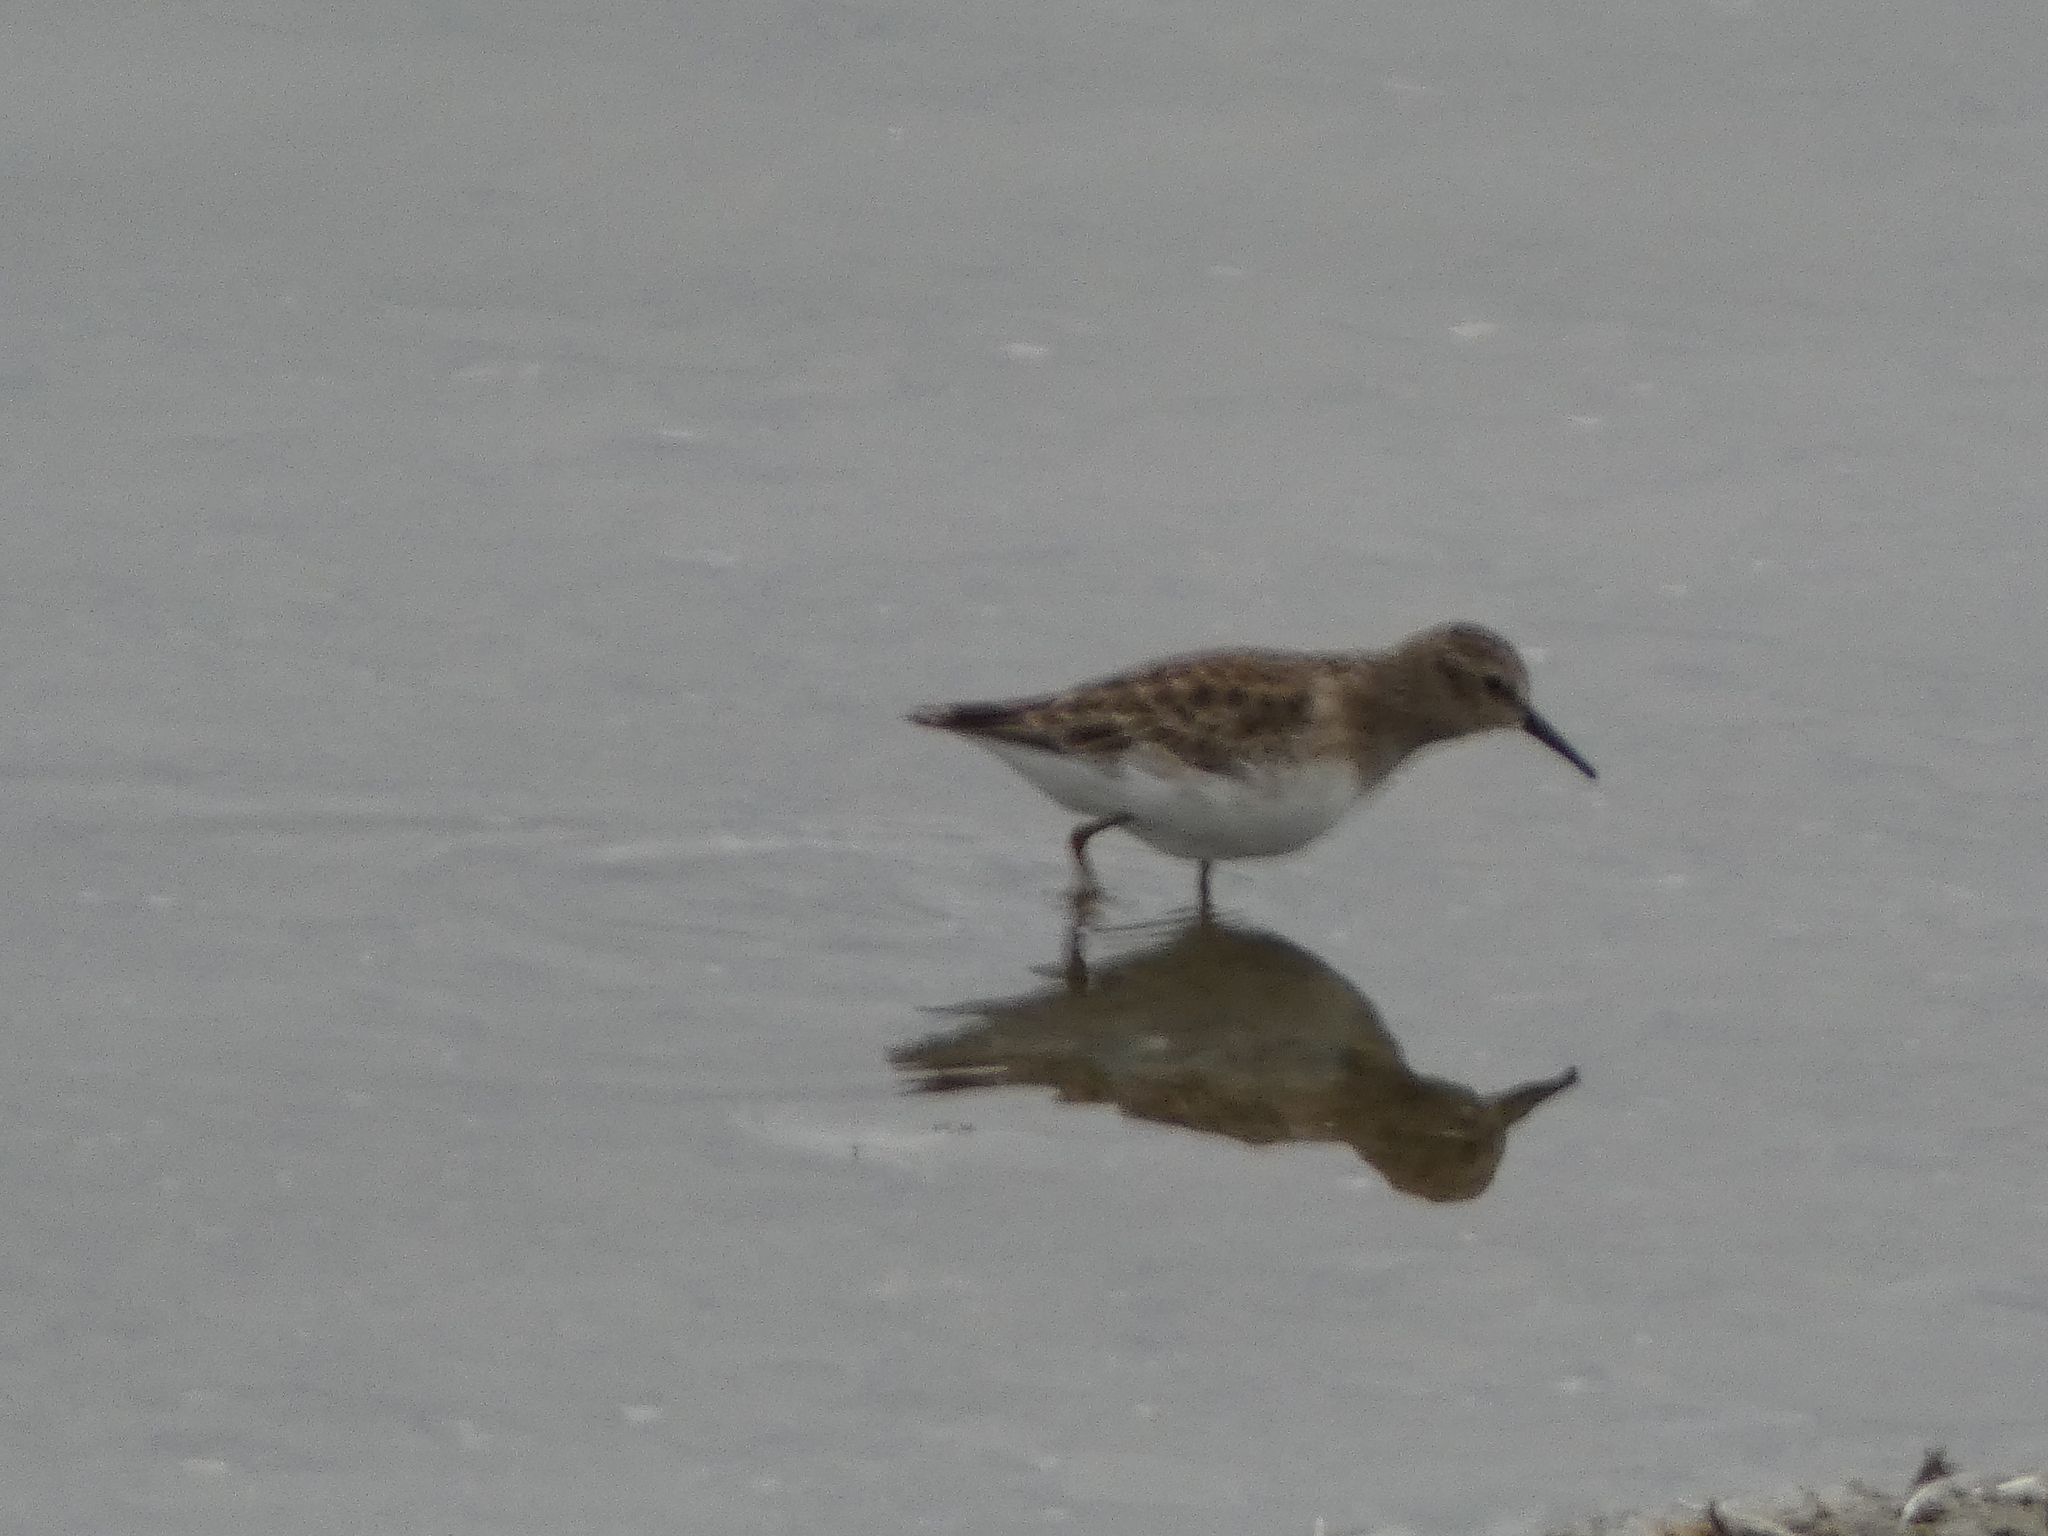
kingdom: Animalia
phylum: Chordata
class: Aves
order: Charadriiformes
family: Scolopacidae
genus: Calidris
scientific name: Calidris minutilla
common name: Least sandpiper
